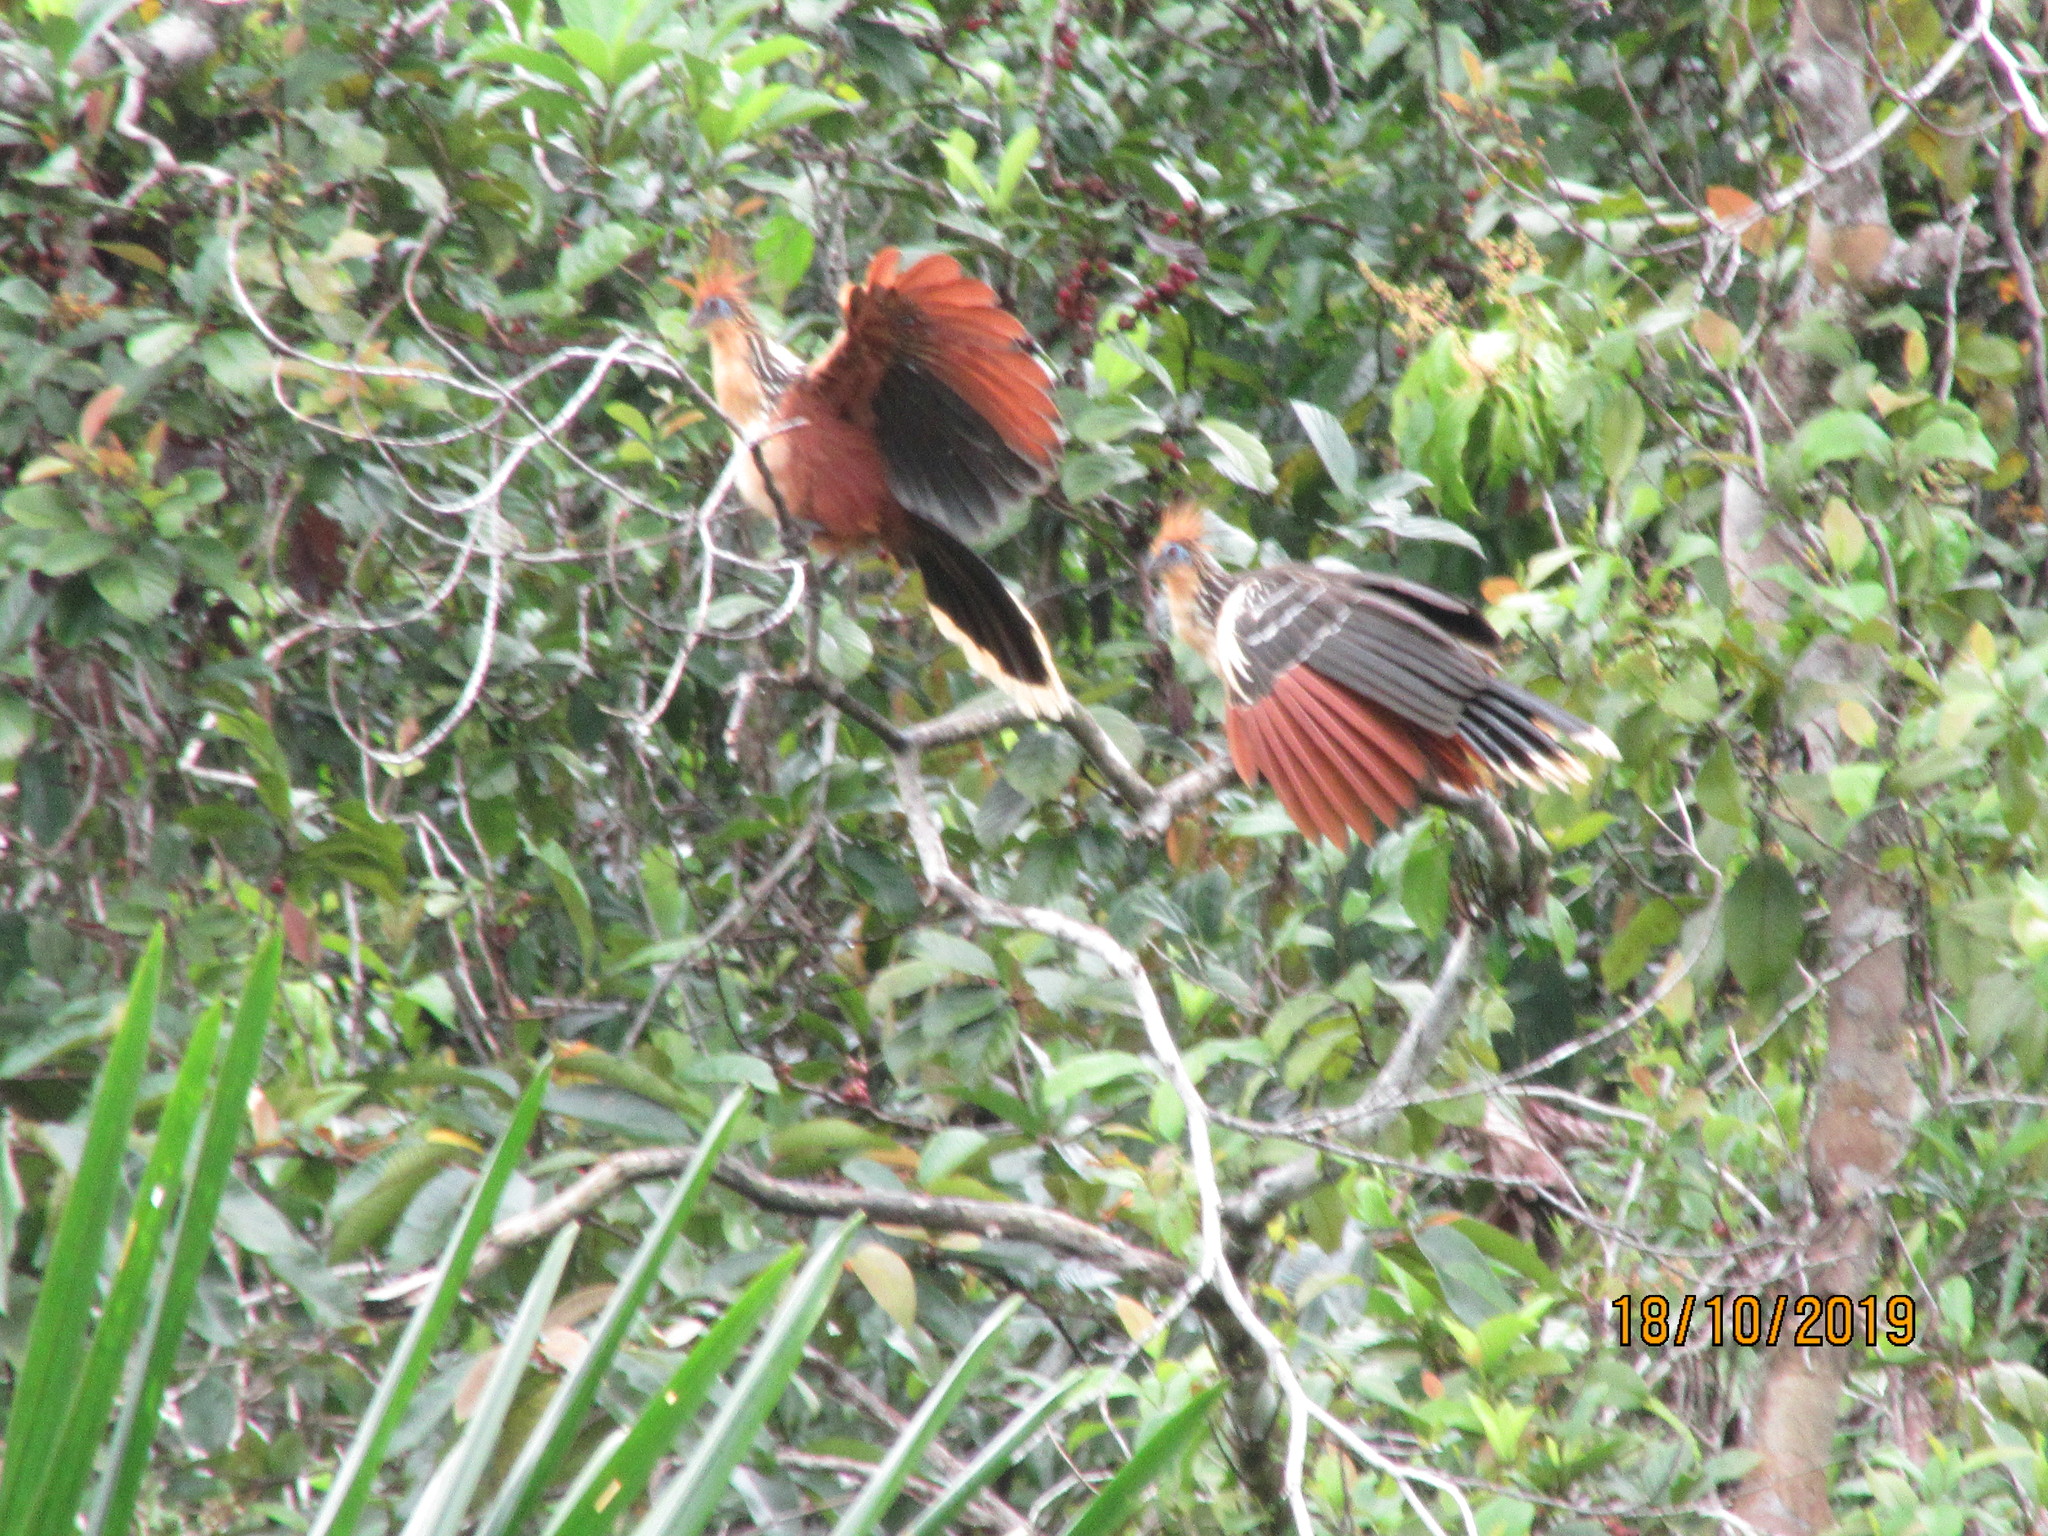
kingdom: Animalia
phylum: Chordata
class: Aves
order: Opisthocomiformes
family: Opisthocomidae
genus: Opisthocomus
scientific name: Opisthocomus hoazin
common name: Hoatzin
